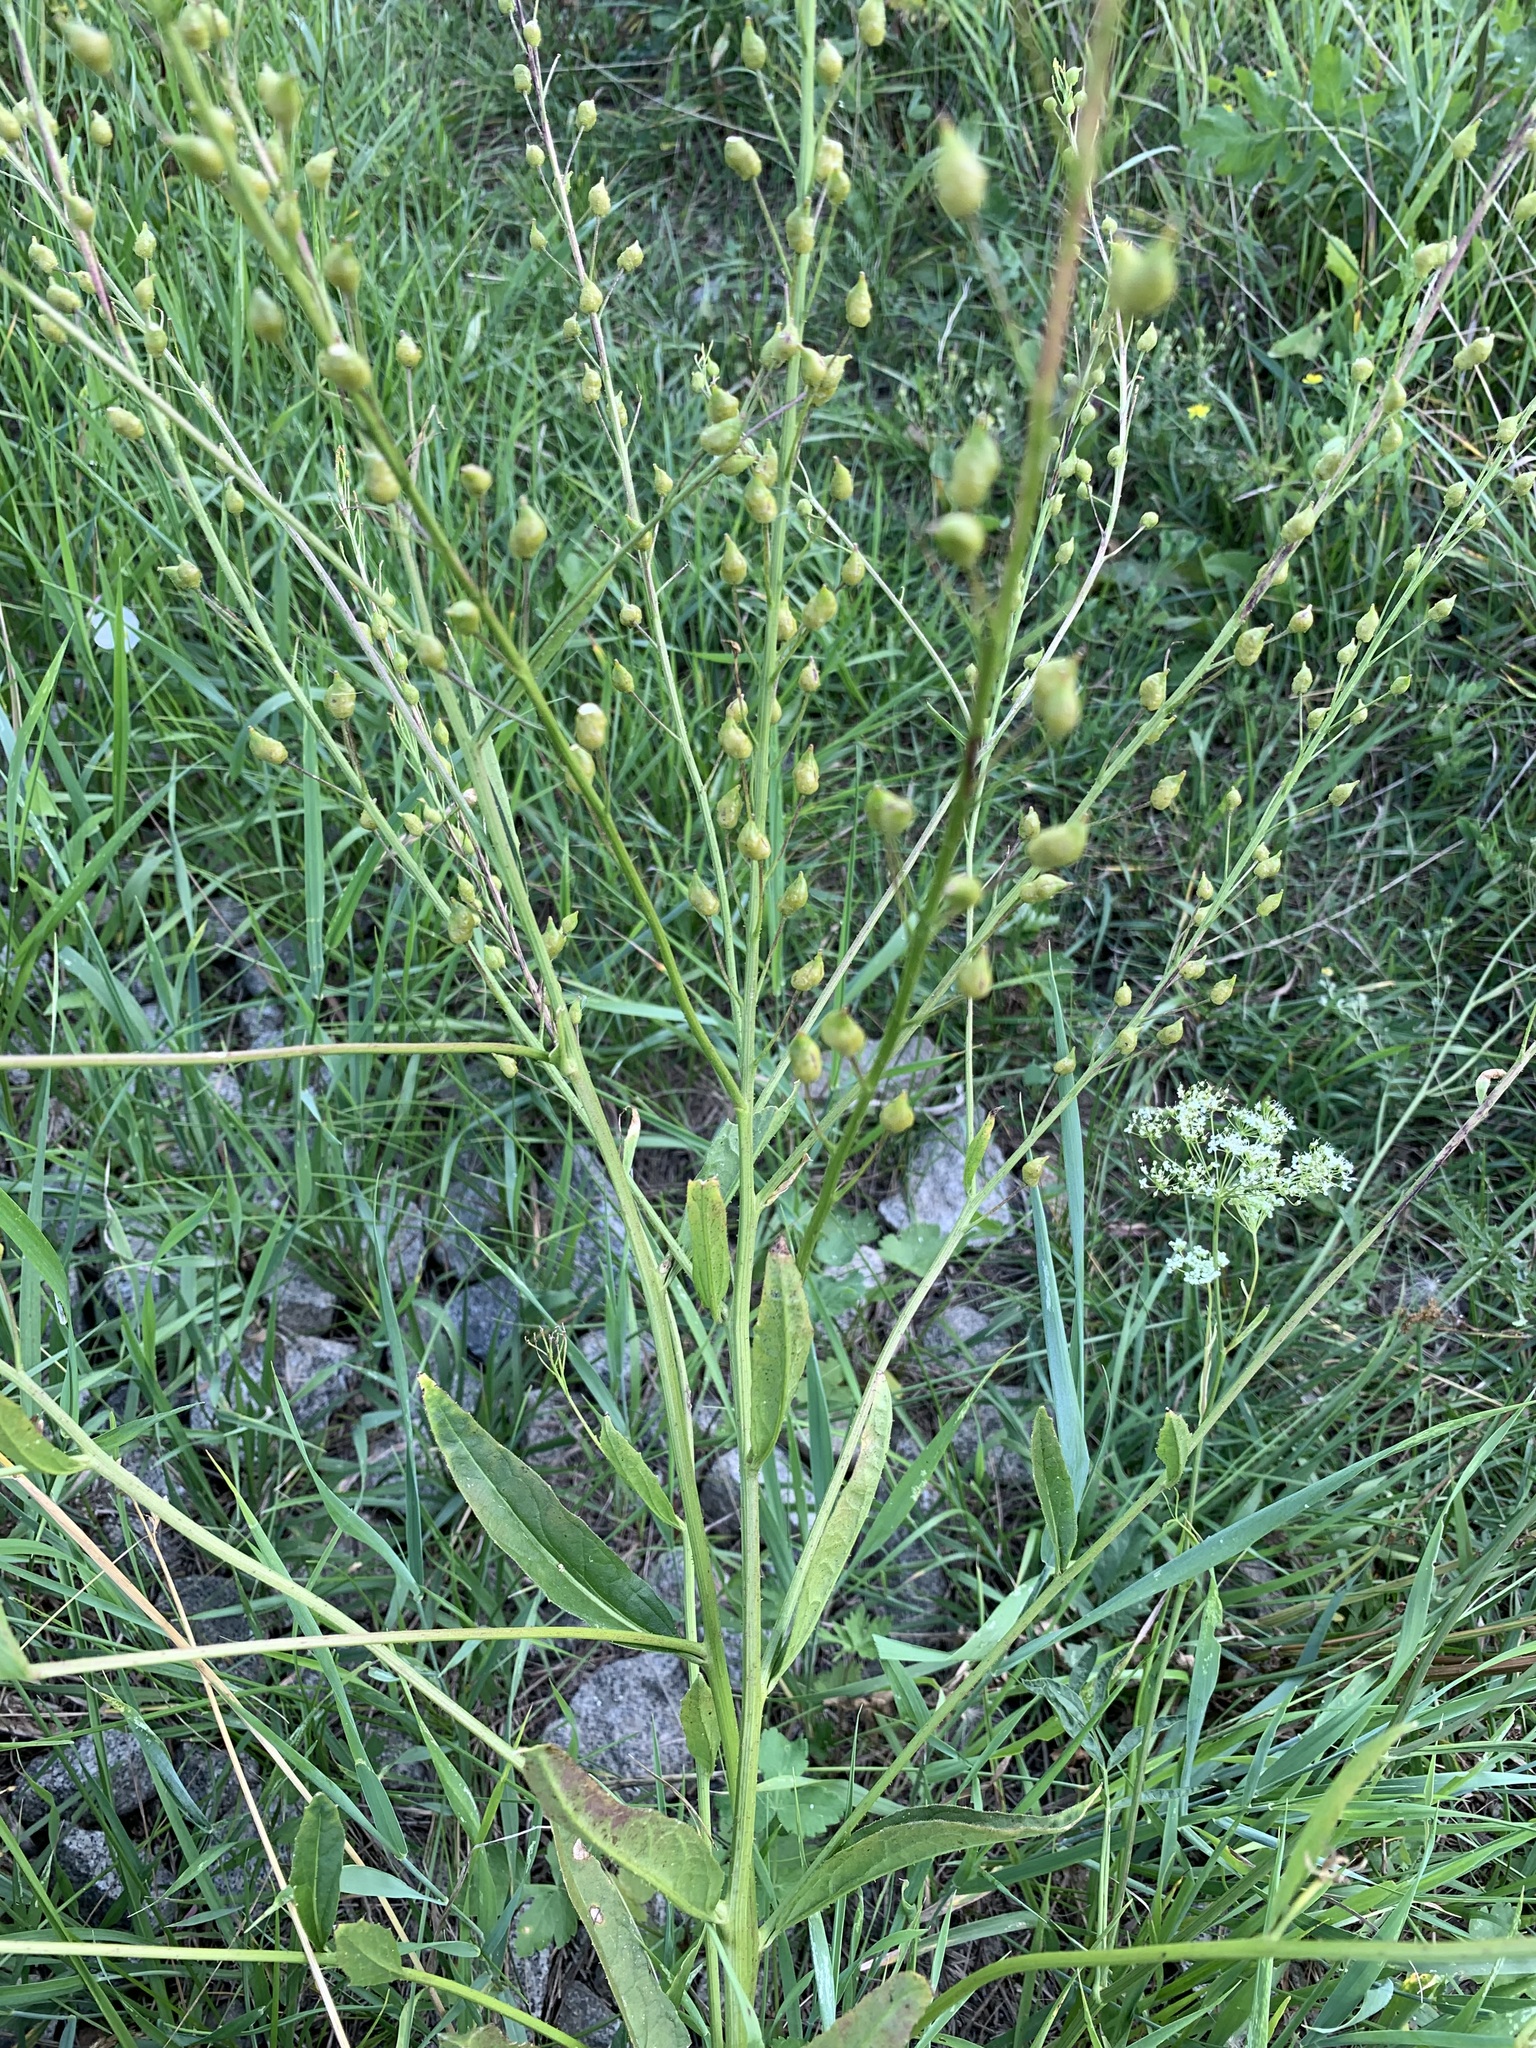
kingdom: Plantae
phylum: Tracheophyta
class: Magnoliopsida
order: Brassicales
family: Brassicaceae
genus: Bunias
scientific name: Bunias orientalis
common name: Warty-cabbage
